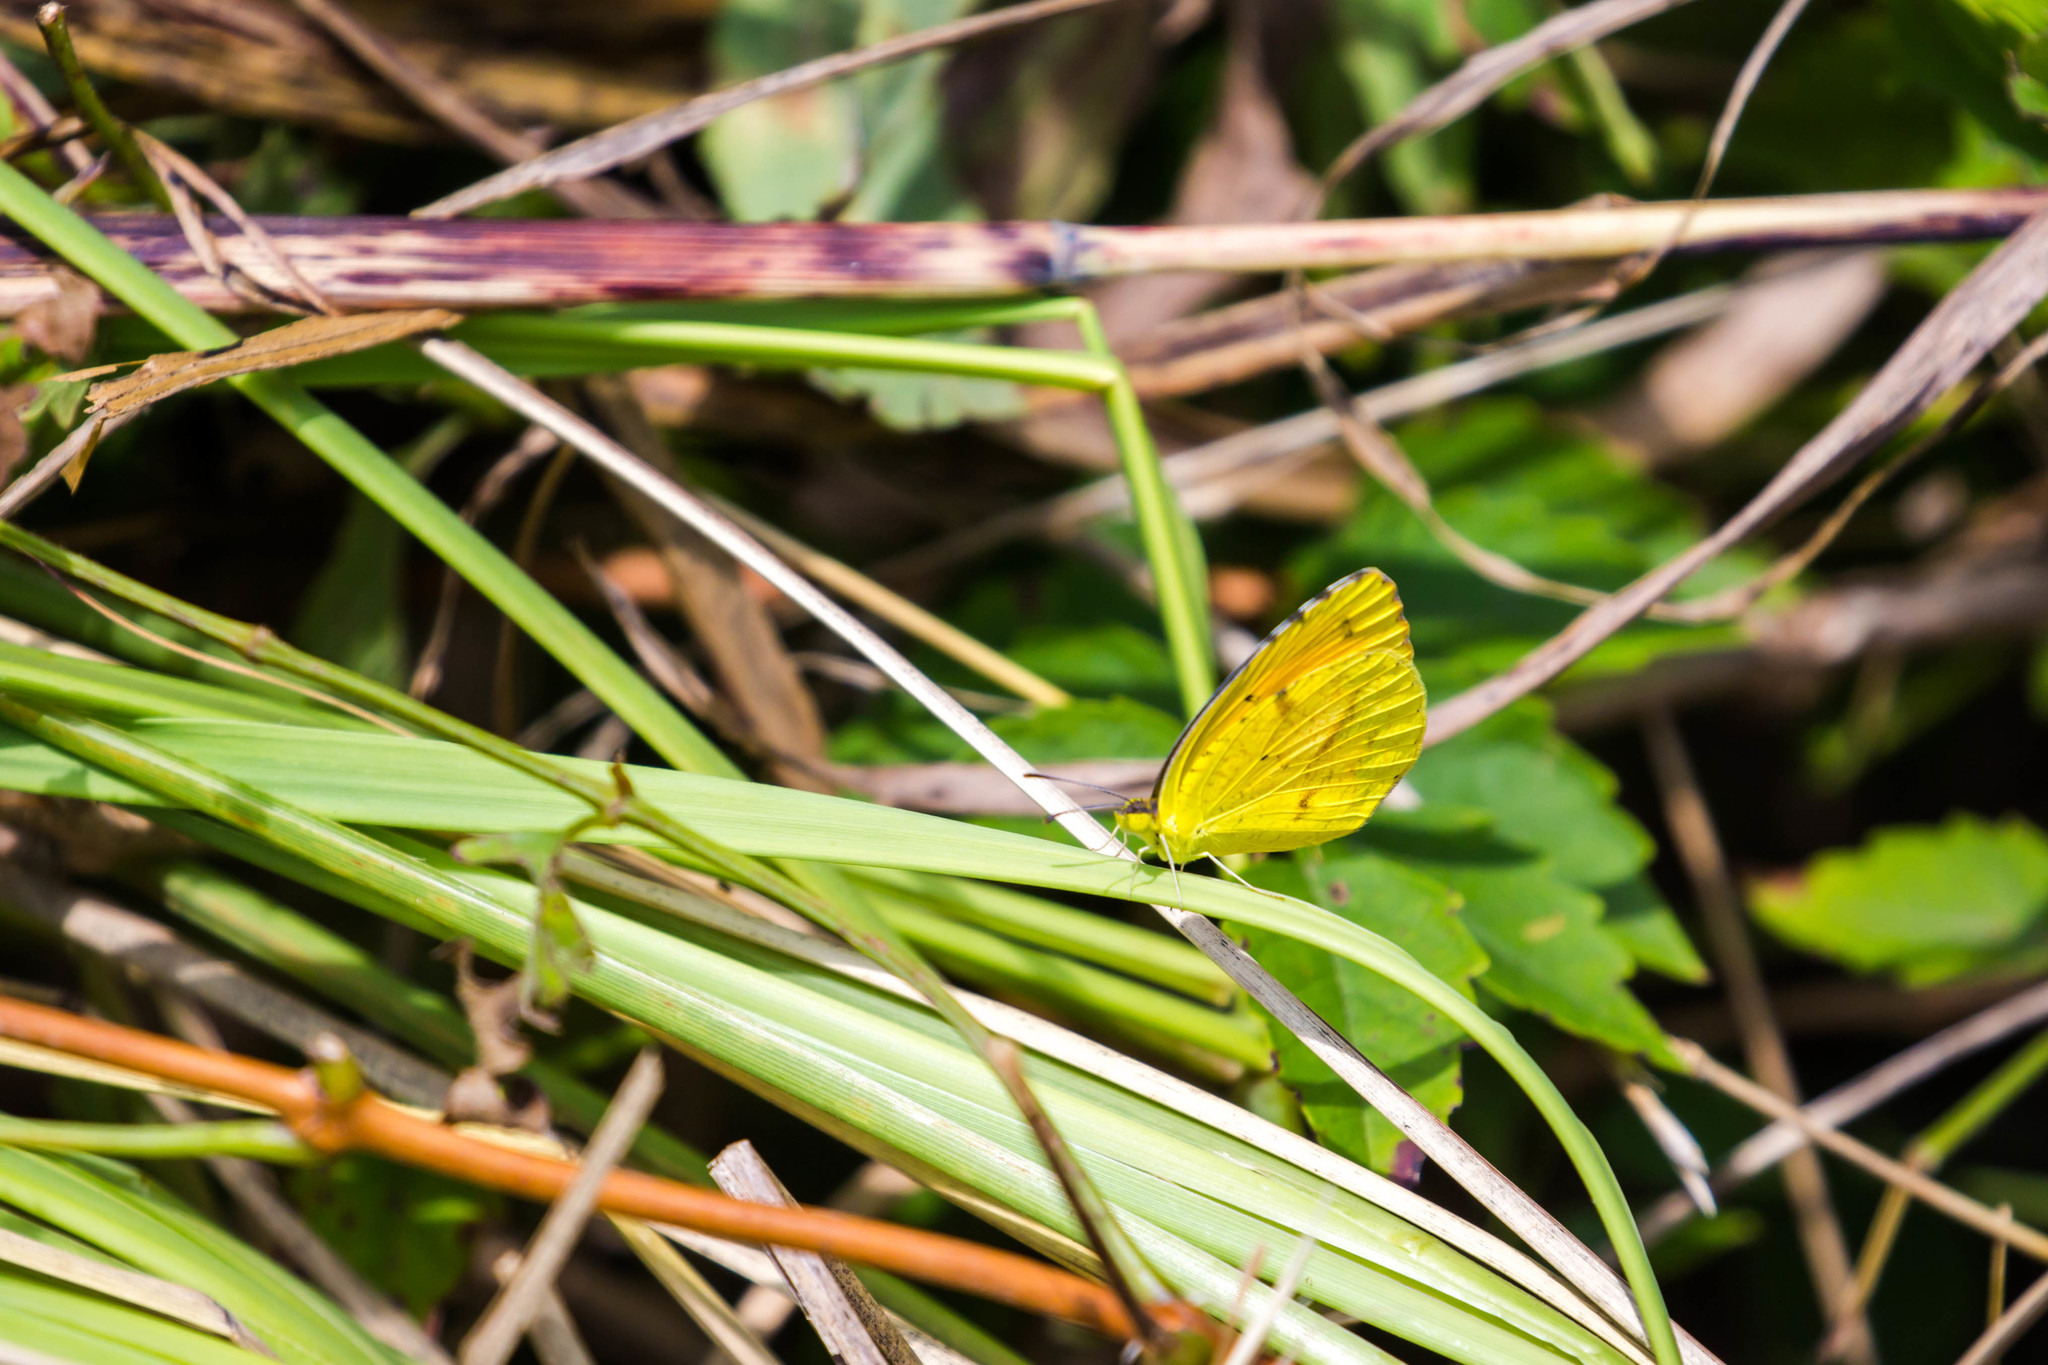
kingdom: Animalia
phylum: Arthropoda
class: Insecta
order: Lepidoptera
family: Pieridae
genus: Abaeis
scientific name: Abaeis nicippe
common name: Sleepy orange
